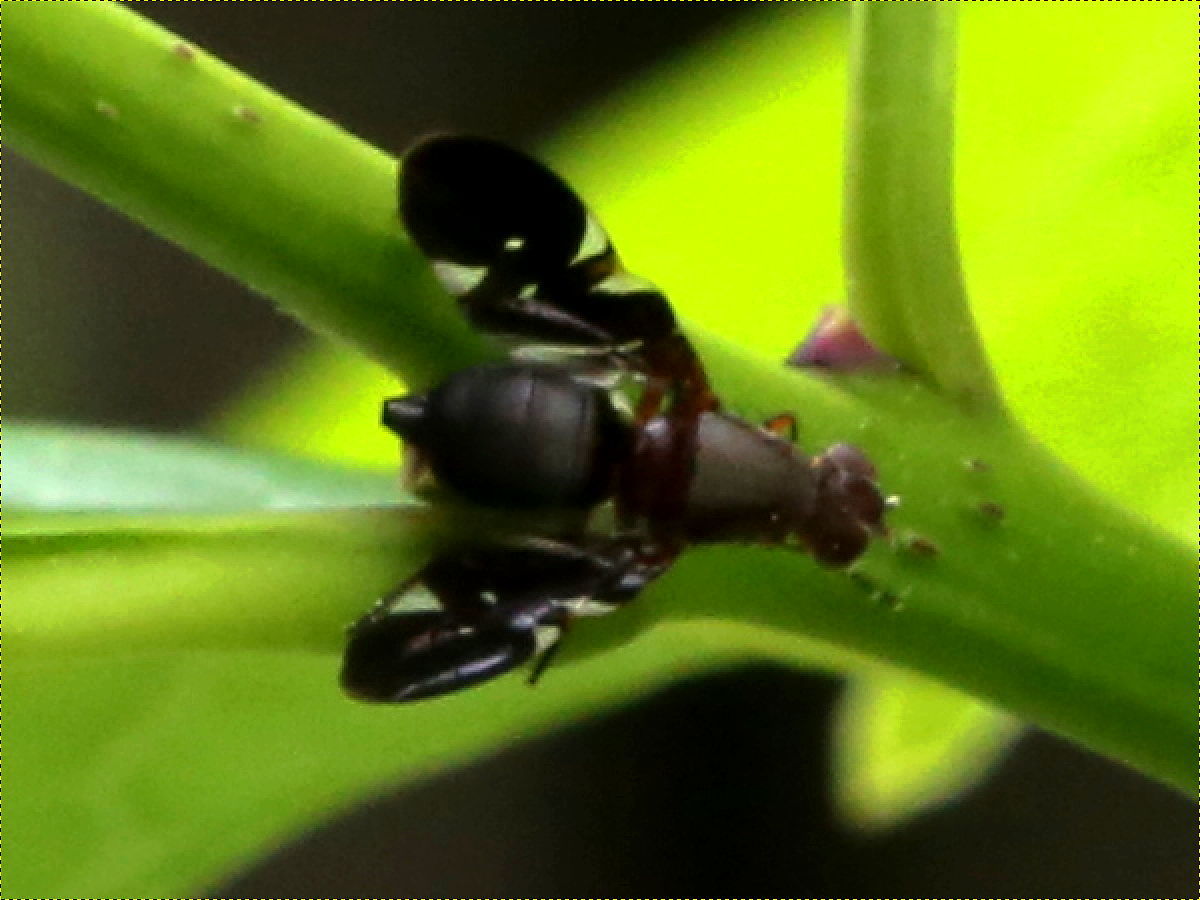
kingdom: Animalia
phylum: Arthropoda
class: Insecta
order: Diptera
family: Ulidiidae
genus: Delphinia
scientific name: Delphinia picta
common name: Common picture-winged fly
